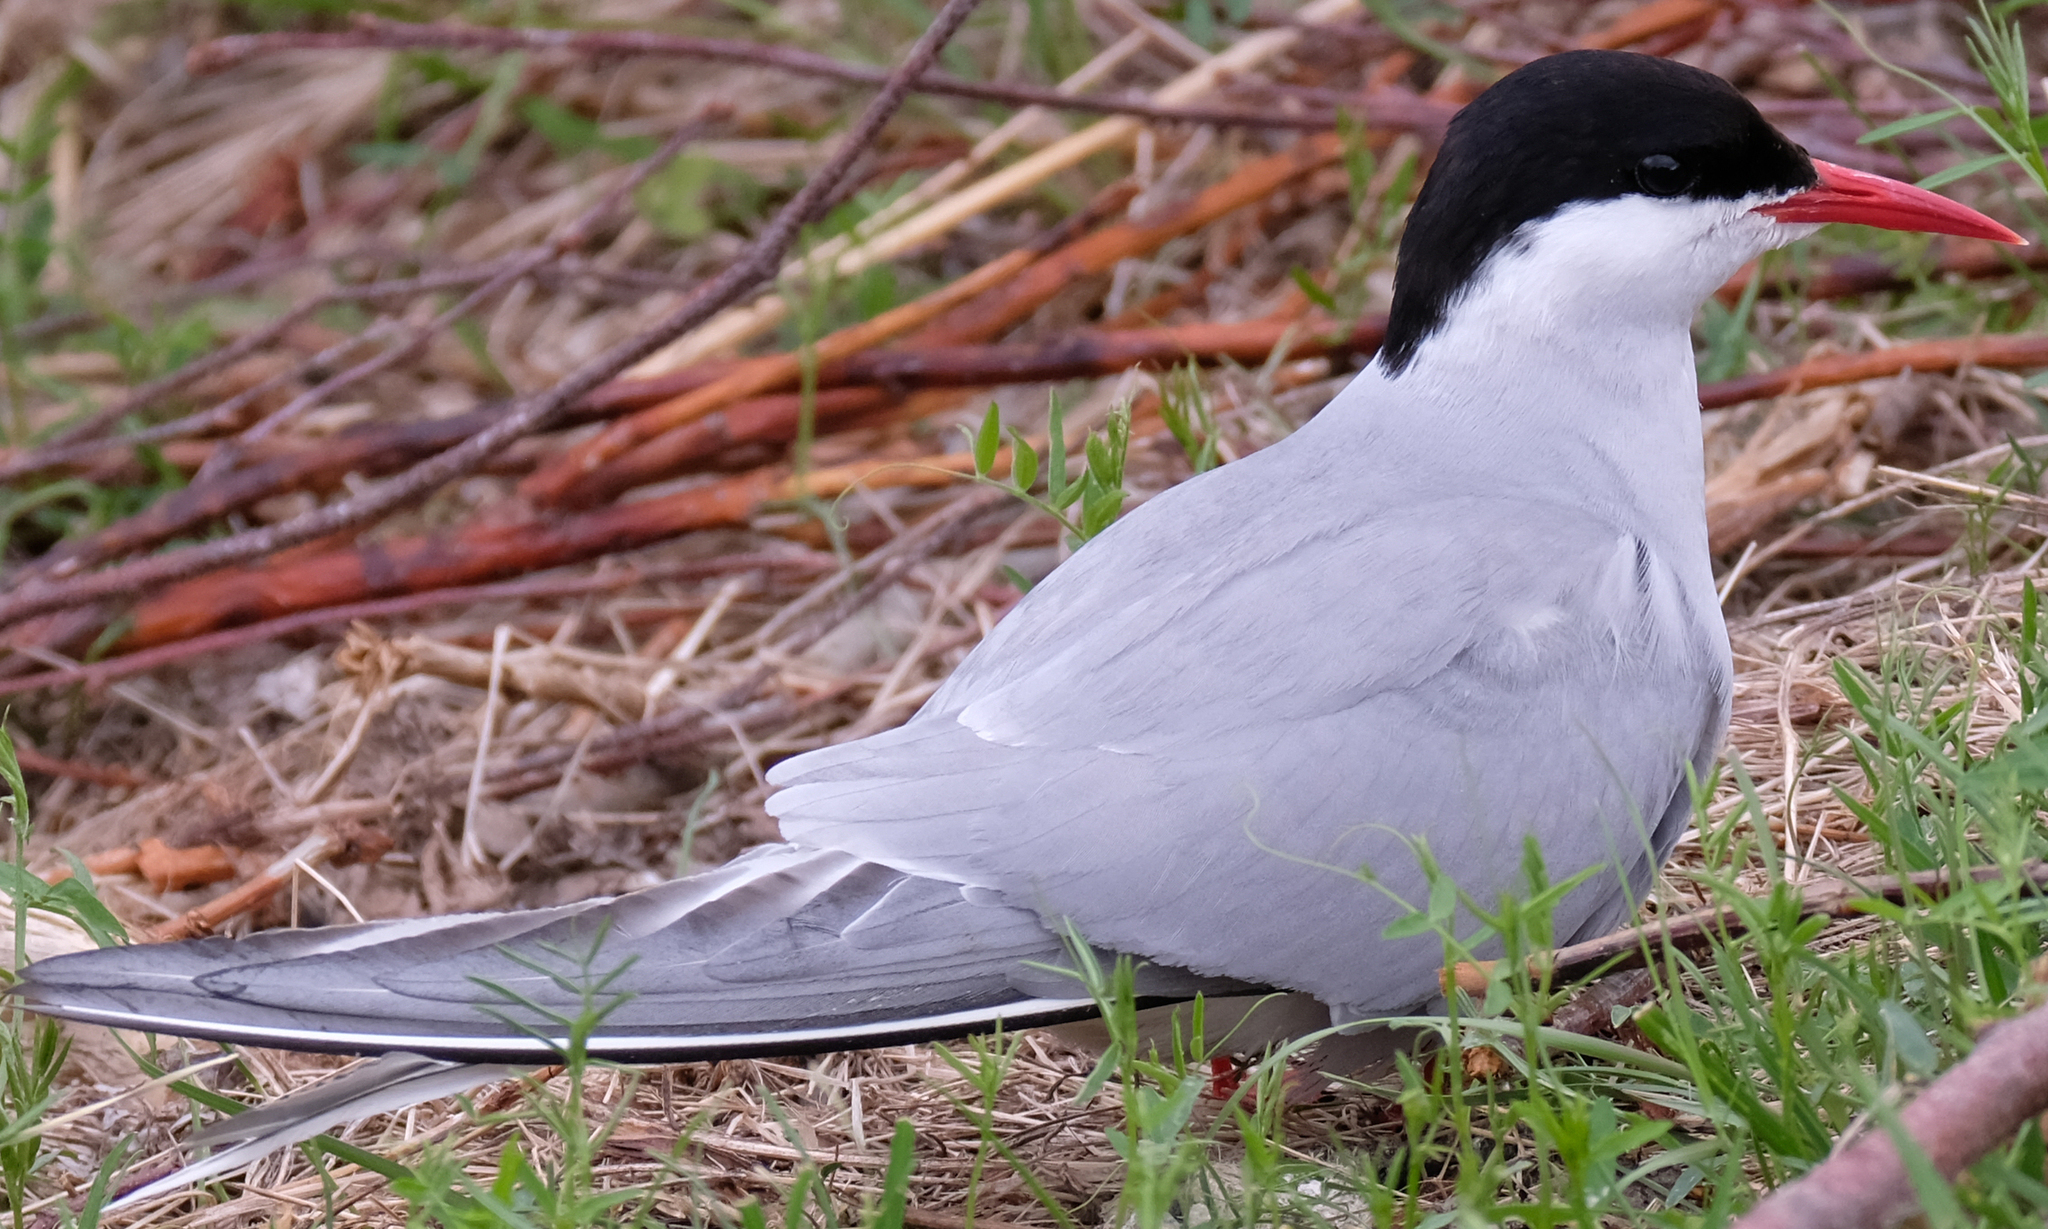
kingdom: Animalia
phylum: Chordata
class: Aves
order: Charadriiformes
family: Laridae
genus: Sterna
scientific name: Sterna paradisaea
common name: Arctic tern
